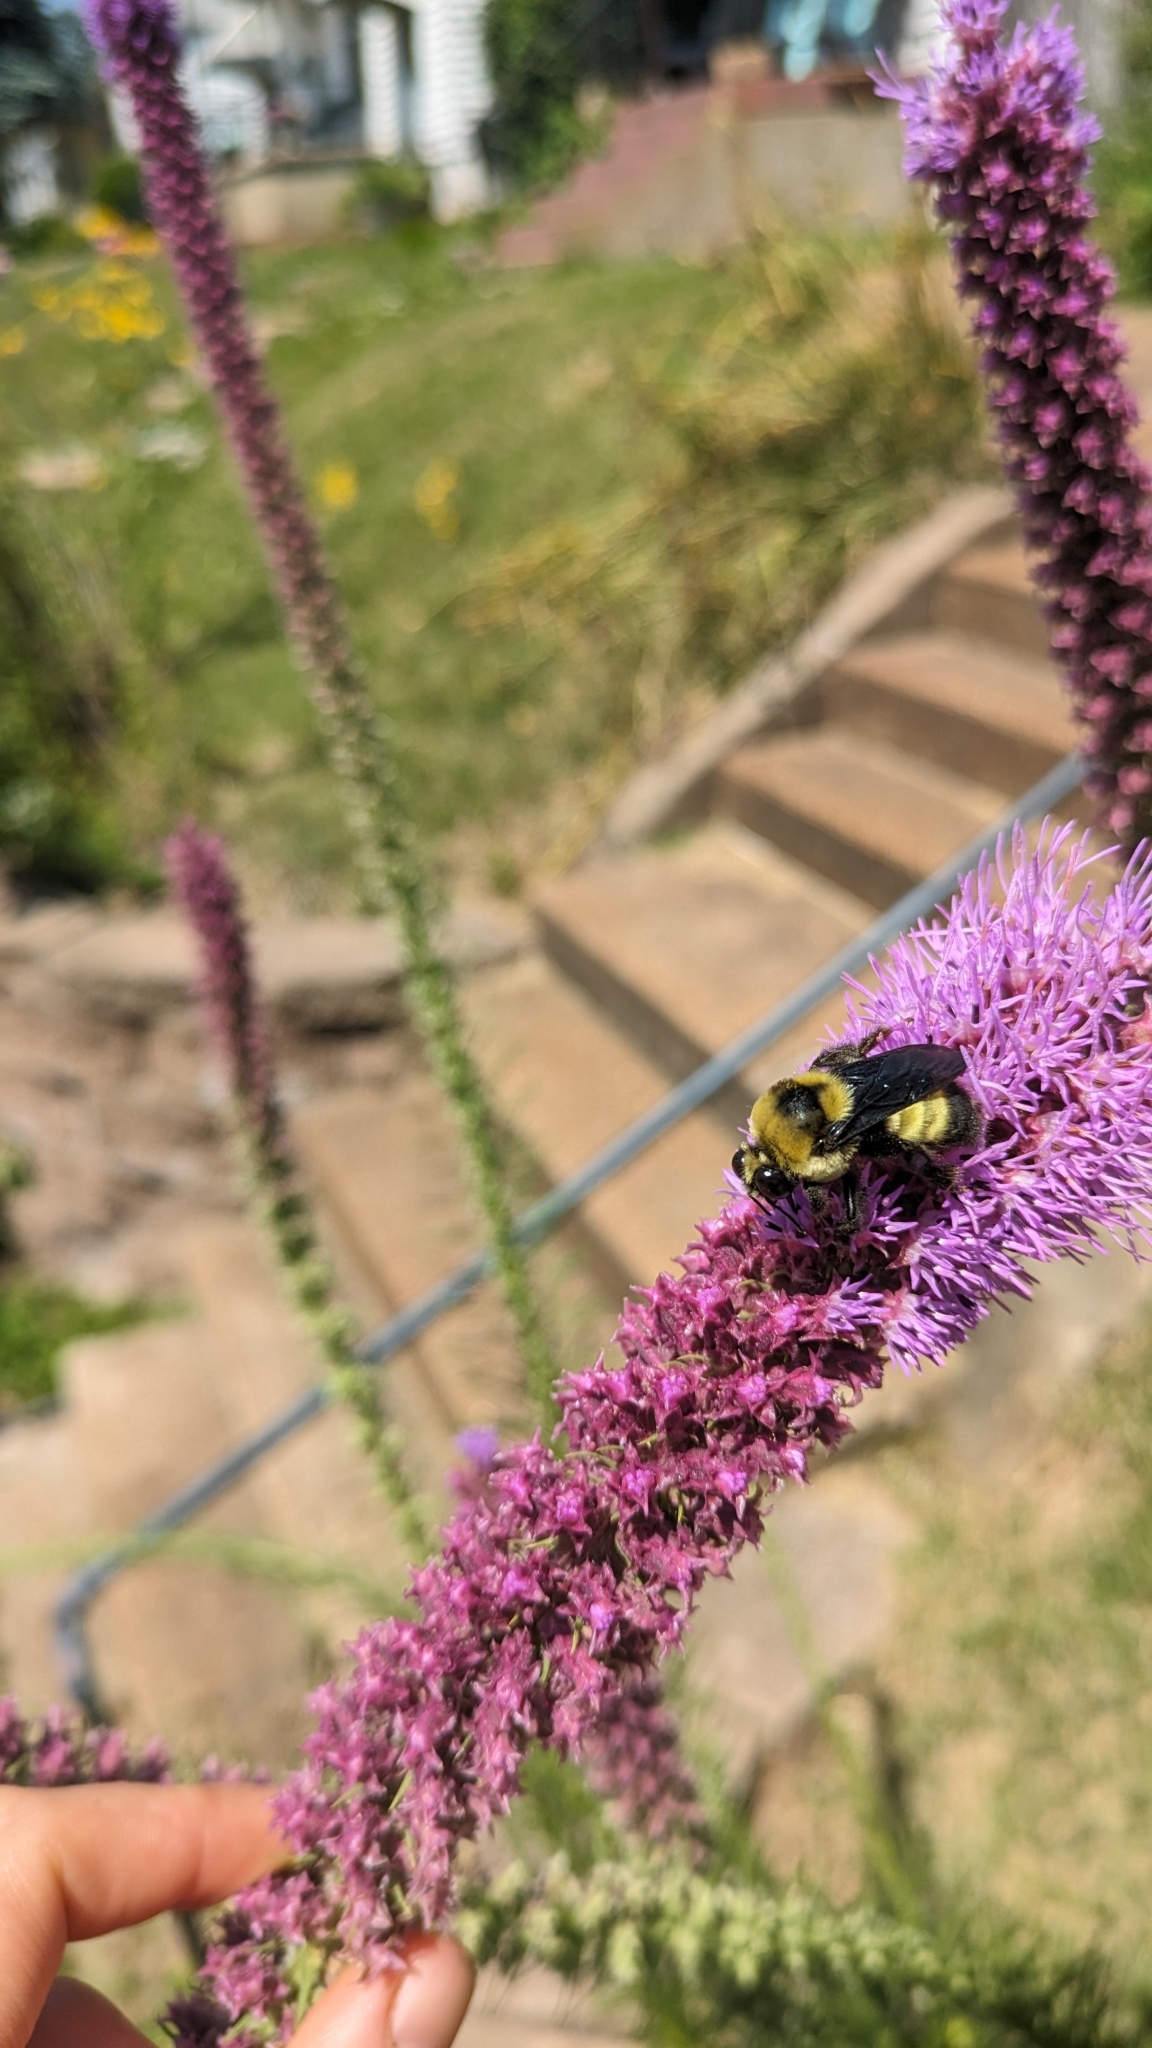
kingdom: Animalia
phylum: Arthropoda
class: Insecta
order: Hymenoptera
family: Apidae
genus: Bombus
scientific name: Bombus auricomus
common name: Black and gold bumble bee
